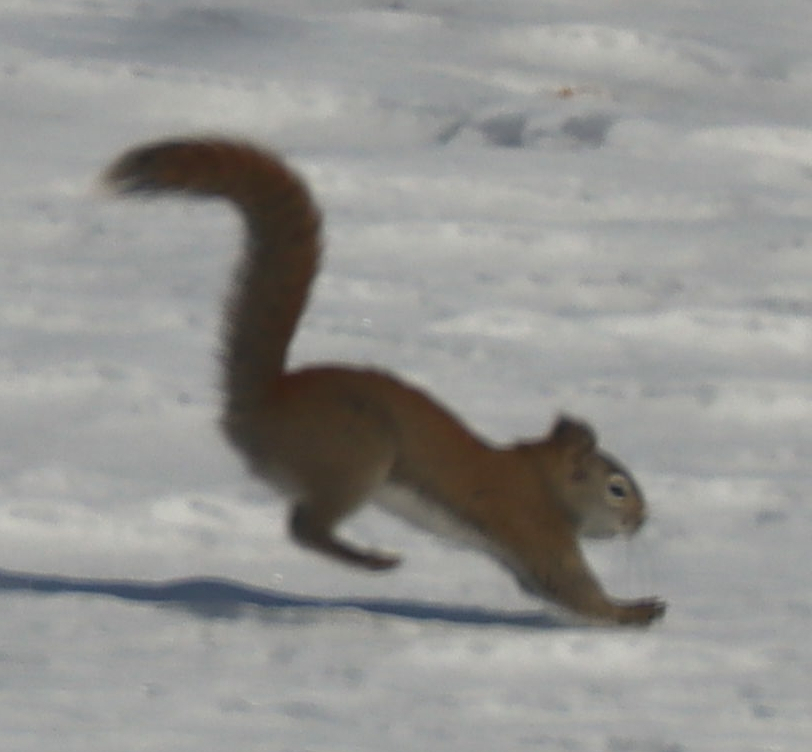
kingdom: Animalia
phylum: Chordata
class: Mammalia
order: Rodentia
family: Sciuridae
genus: Tamiasciurus
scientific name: Tamiasciurus hudsonicus
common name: Red squirrel
